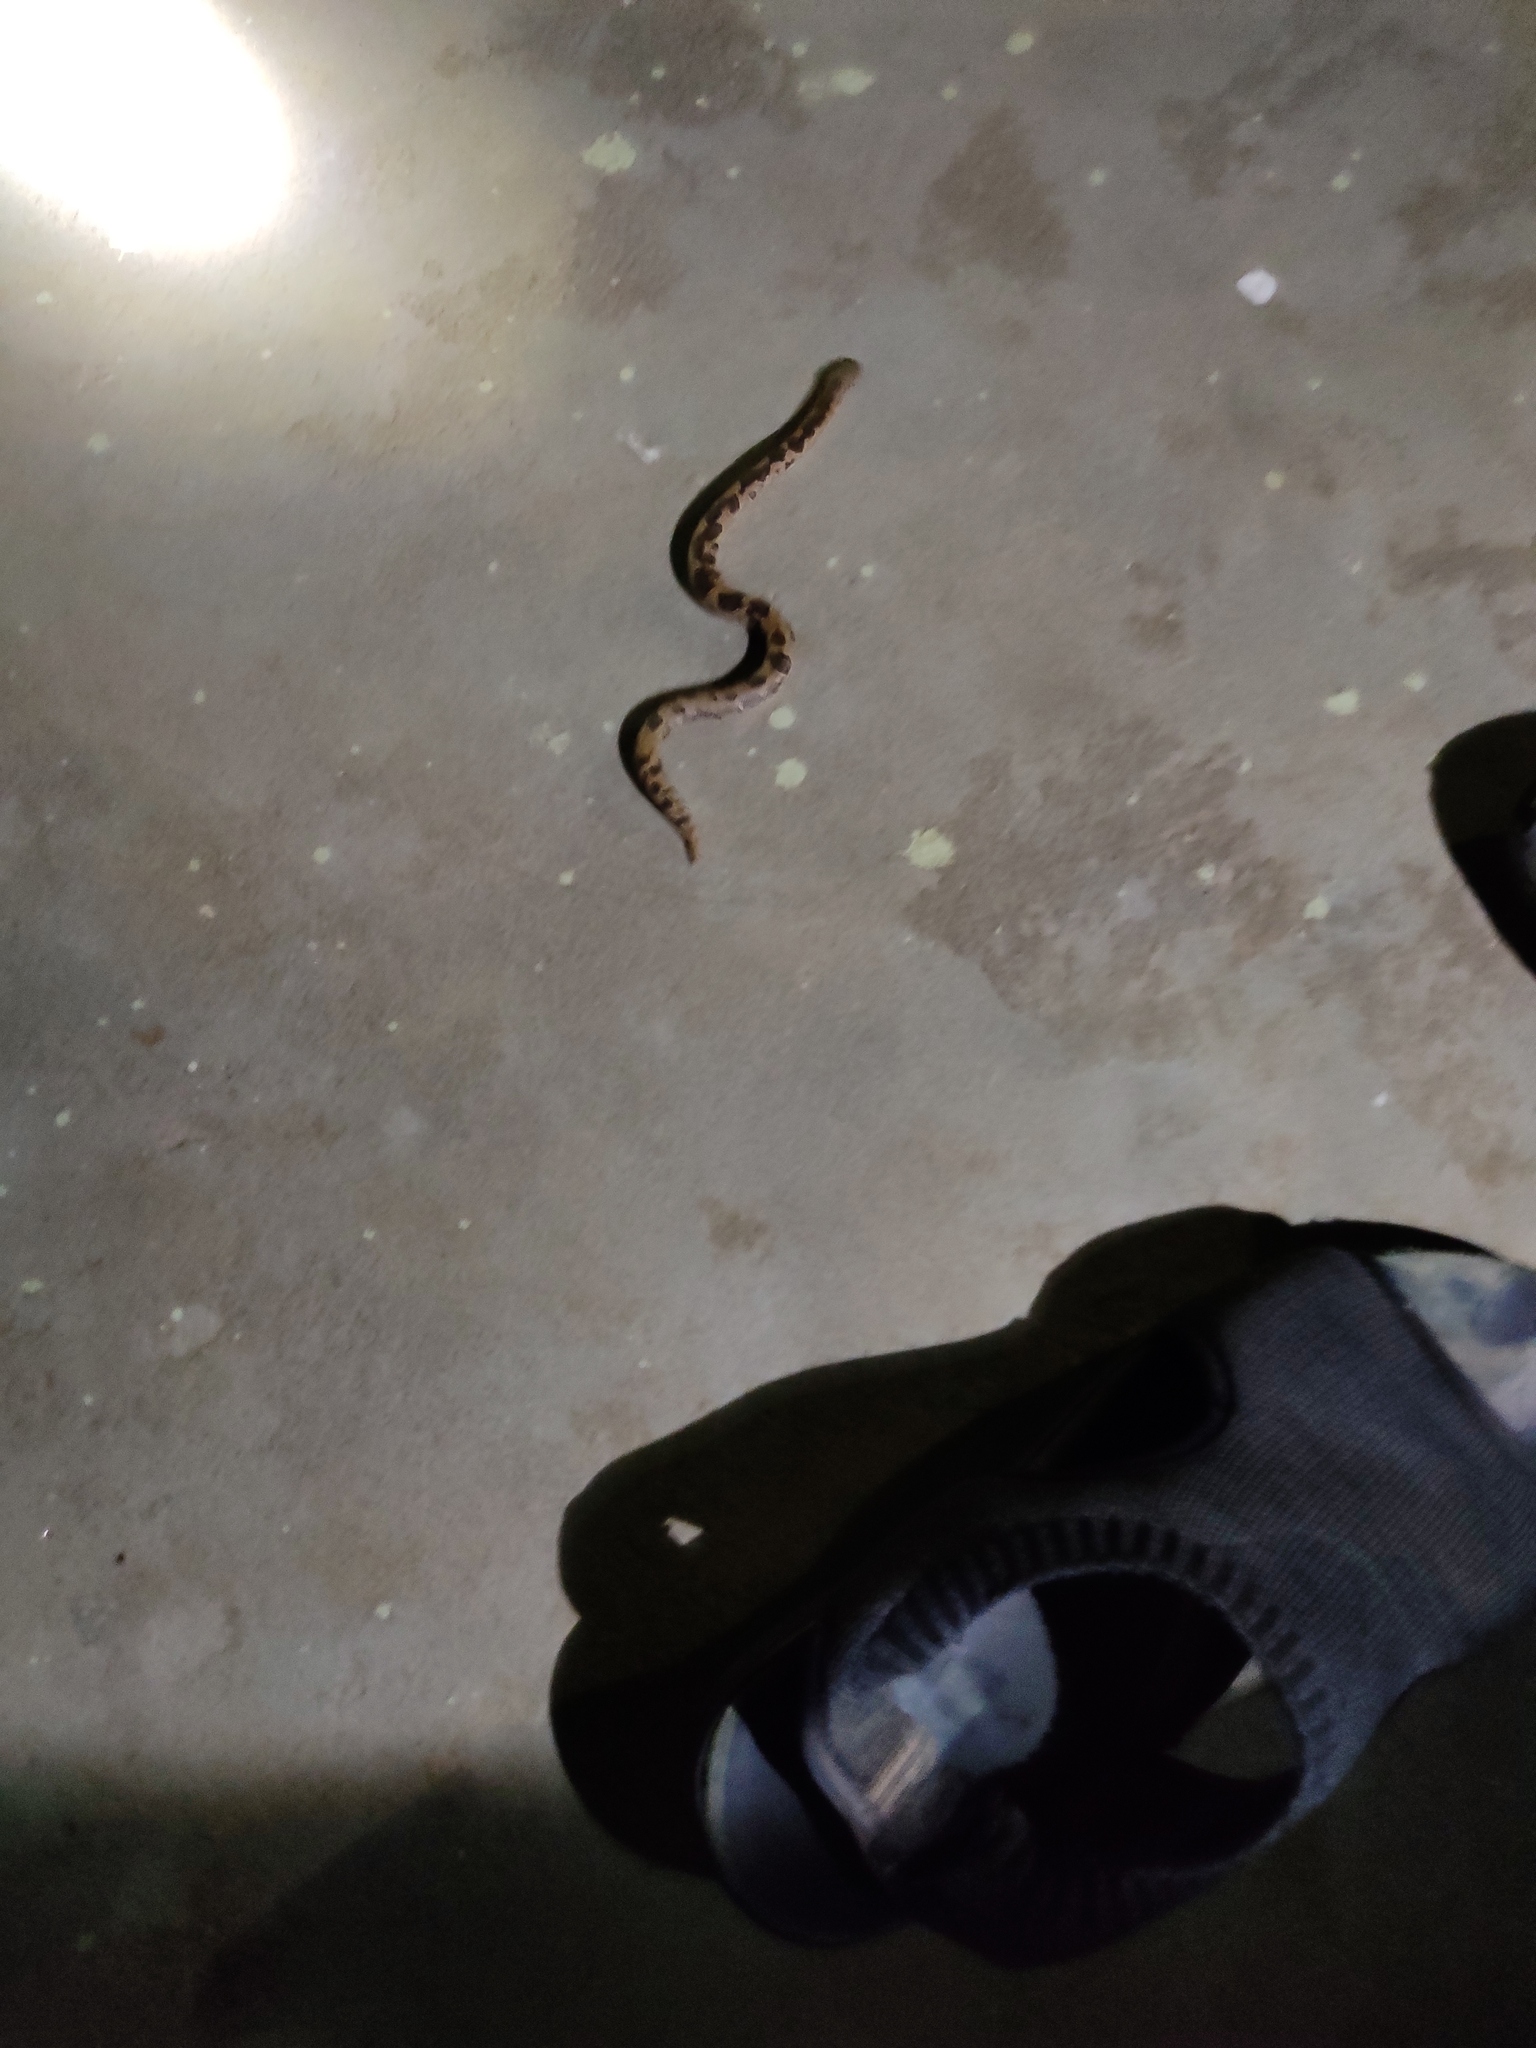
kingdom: Animalia
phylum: Chordata
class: Squamata
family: Boidae
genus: Eryx
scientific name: Eryx conicus
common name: Rough-tailed sand boa
